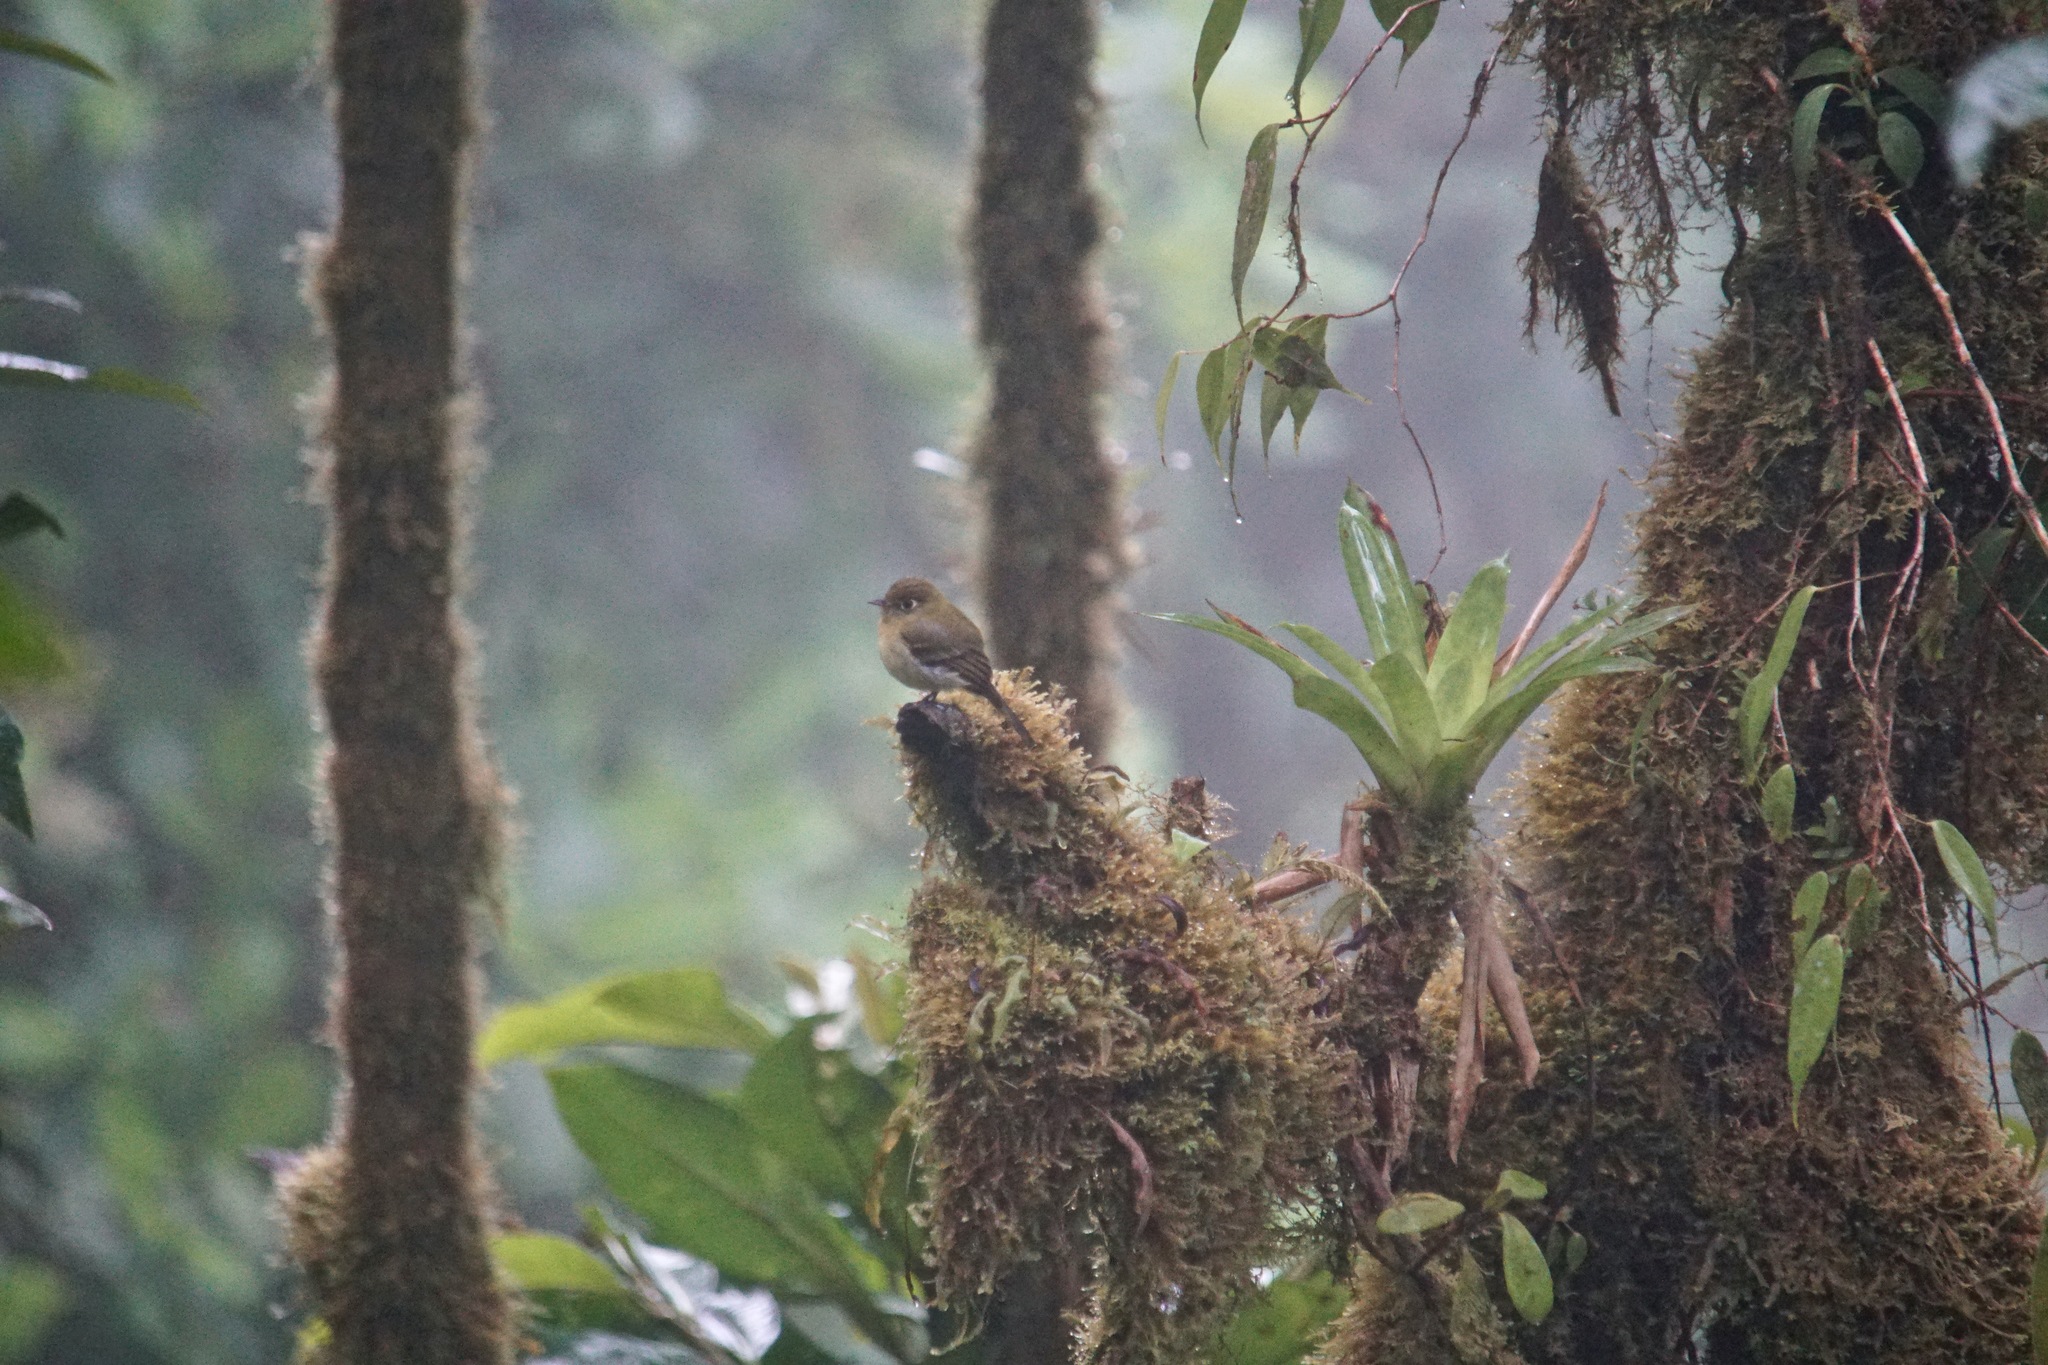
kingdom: Animalia
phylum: Chordata
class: Aves
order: Passeriformes
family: Tyrannidae
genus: Empidonax
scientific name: Empidonax flavescens
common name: Yellowish flycatcher
